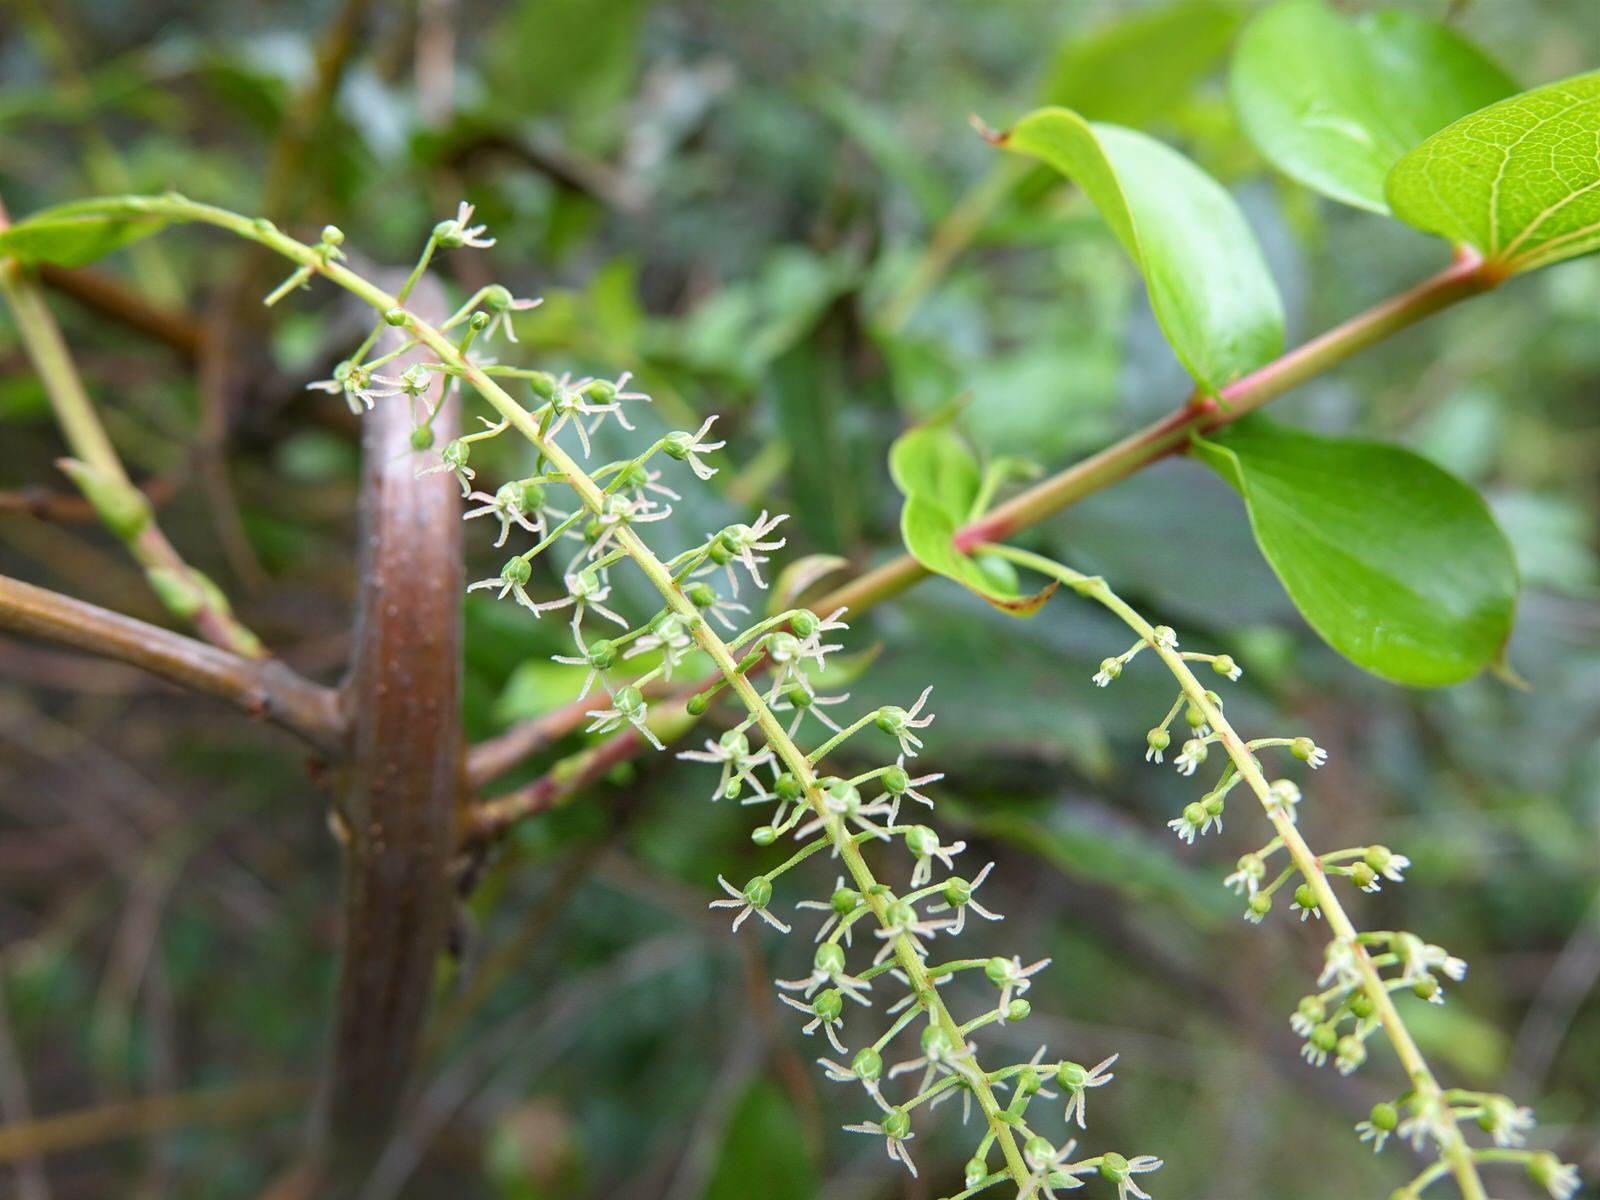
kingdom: Plantae
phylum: Tracheophyta
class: Magnoliopsida
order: Cucurbitales
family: Coriariaceae
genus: Coriaria
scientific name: Coriaria arborea
